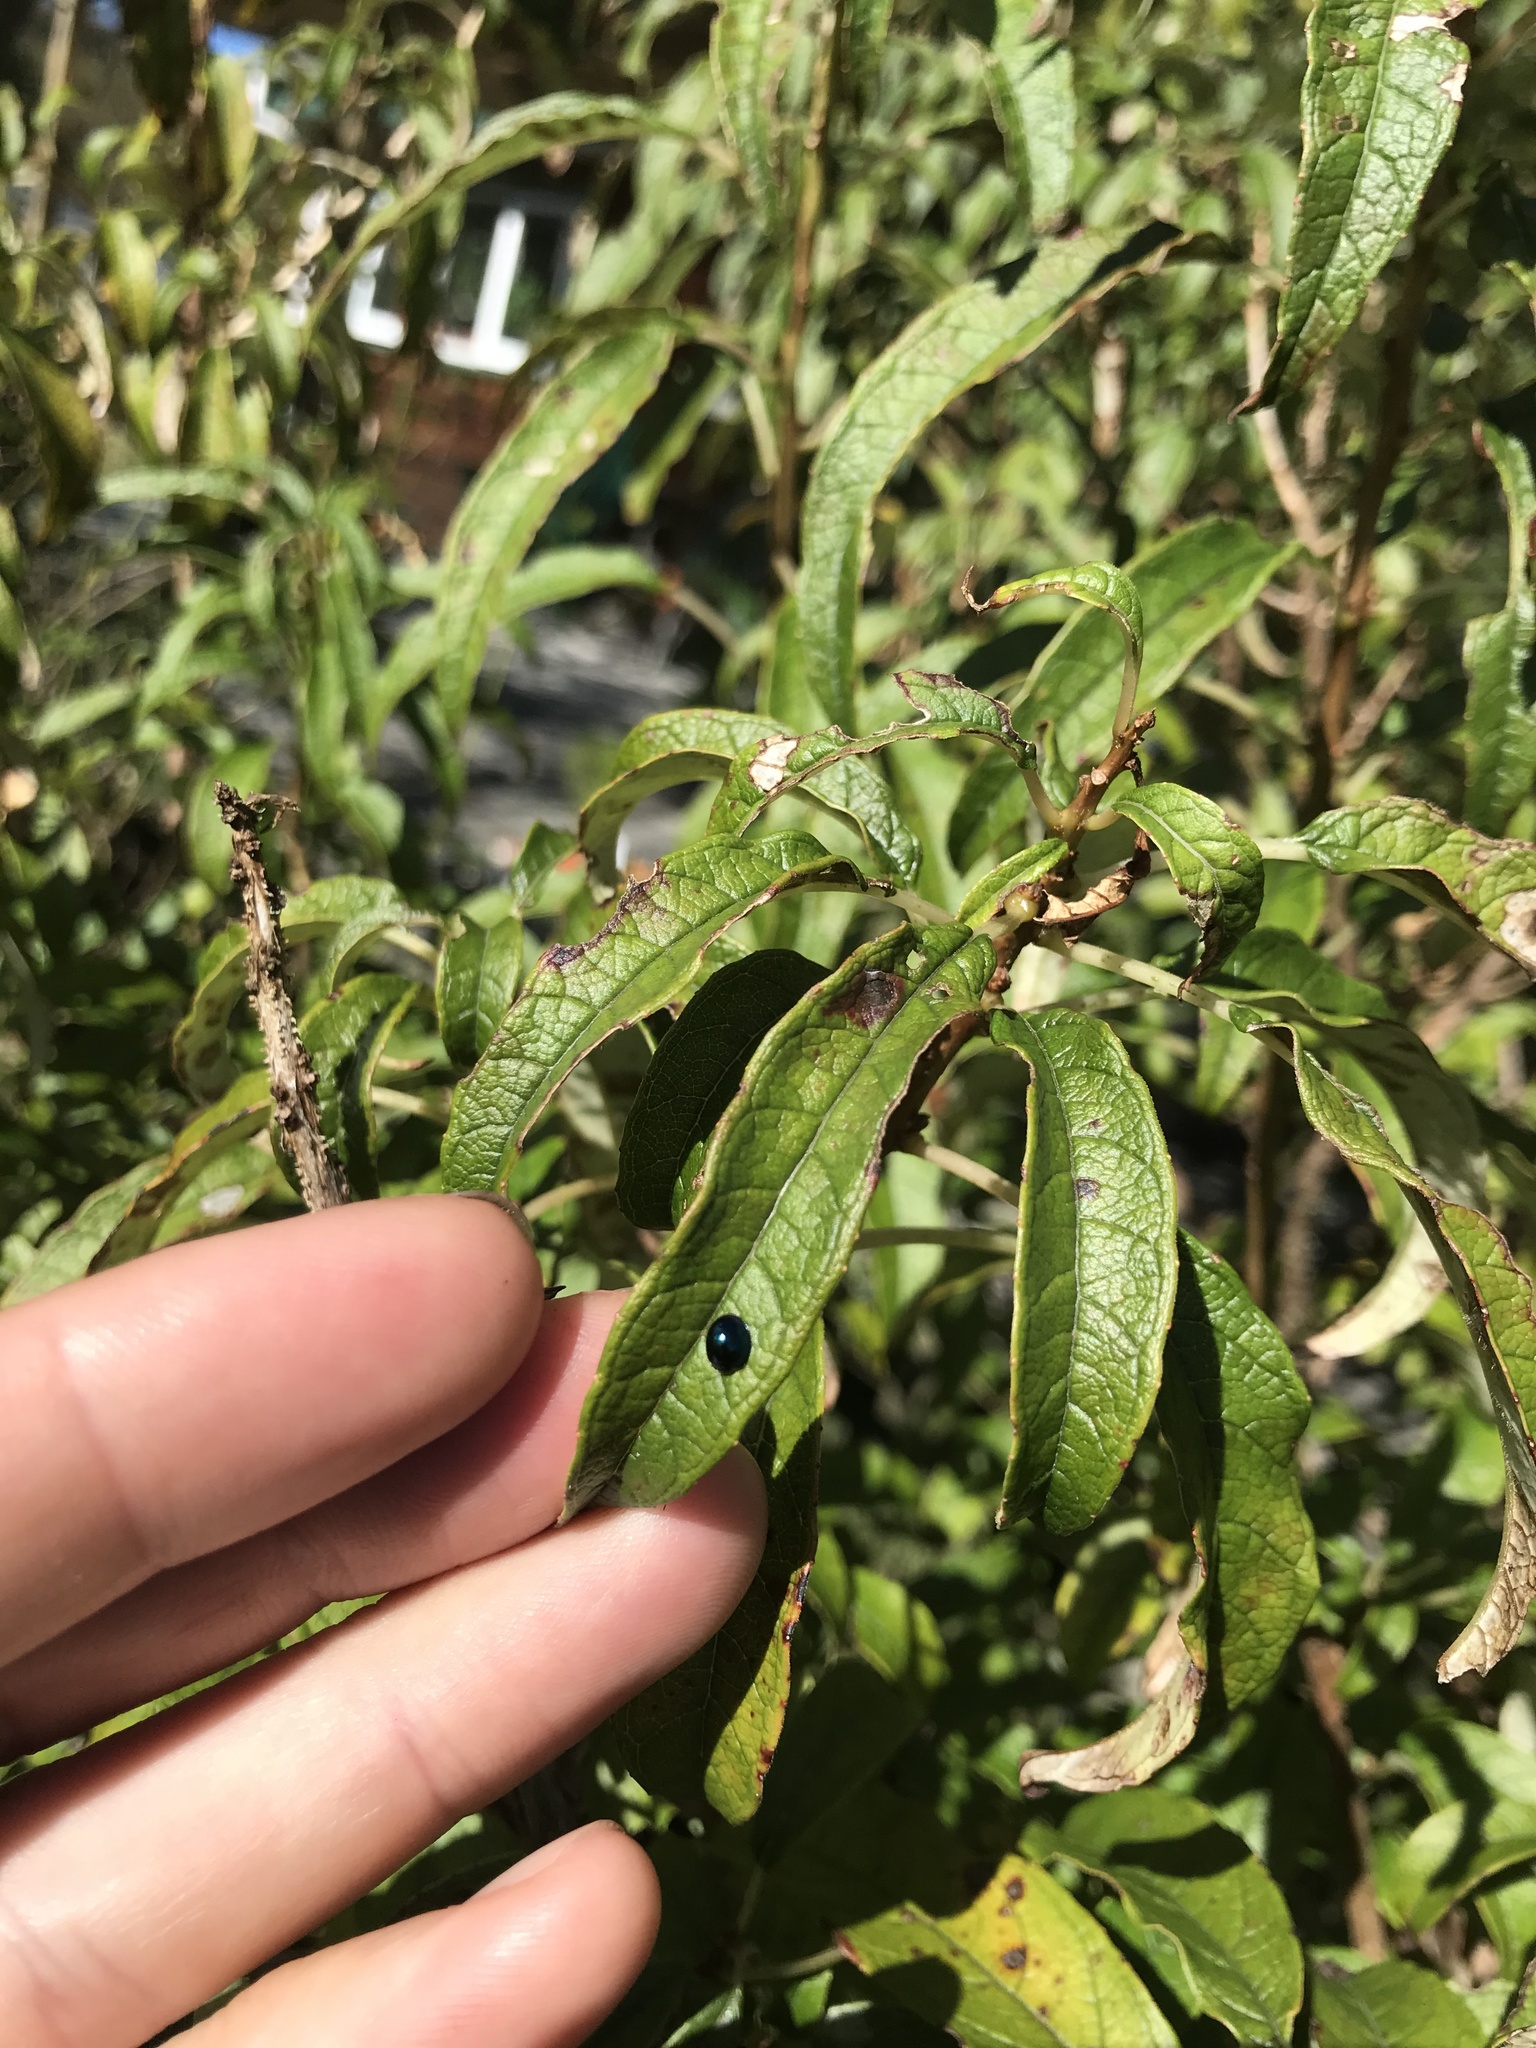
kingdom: Animalia
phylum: Arthropoda
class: Insecta
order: Coleoptera
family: Coccinellidae
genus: Halmus
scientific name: Halmus chalybeus
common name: Steel blue ladybird beetle
